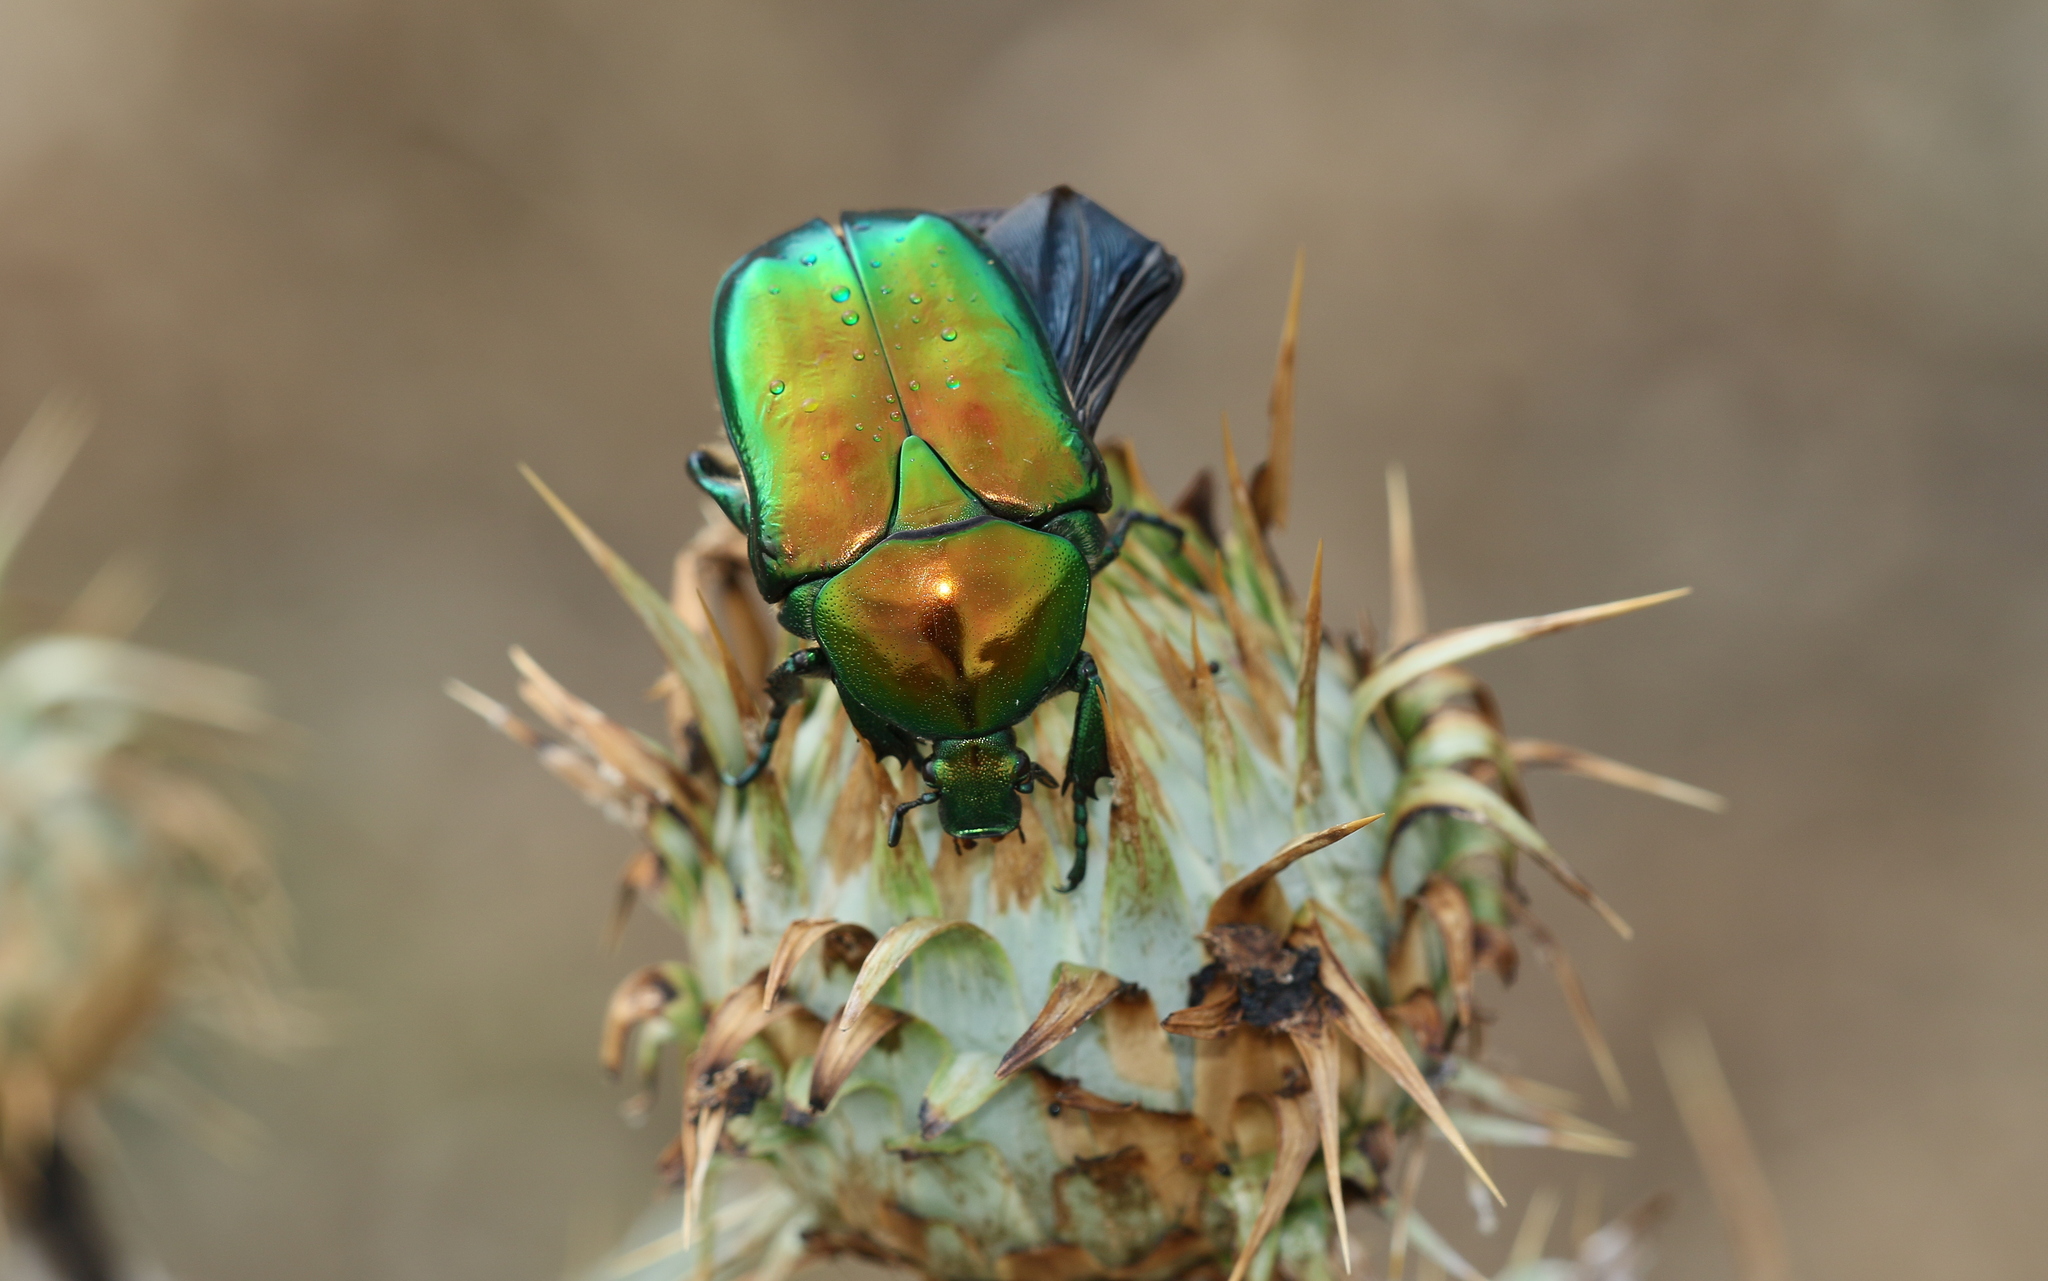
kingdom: Animalia
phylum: Arthropoda
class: Insecta
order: Coleoptera
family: Scarabaeidae
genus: Protaetia
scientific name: Protaetia speciosissima
